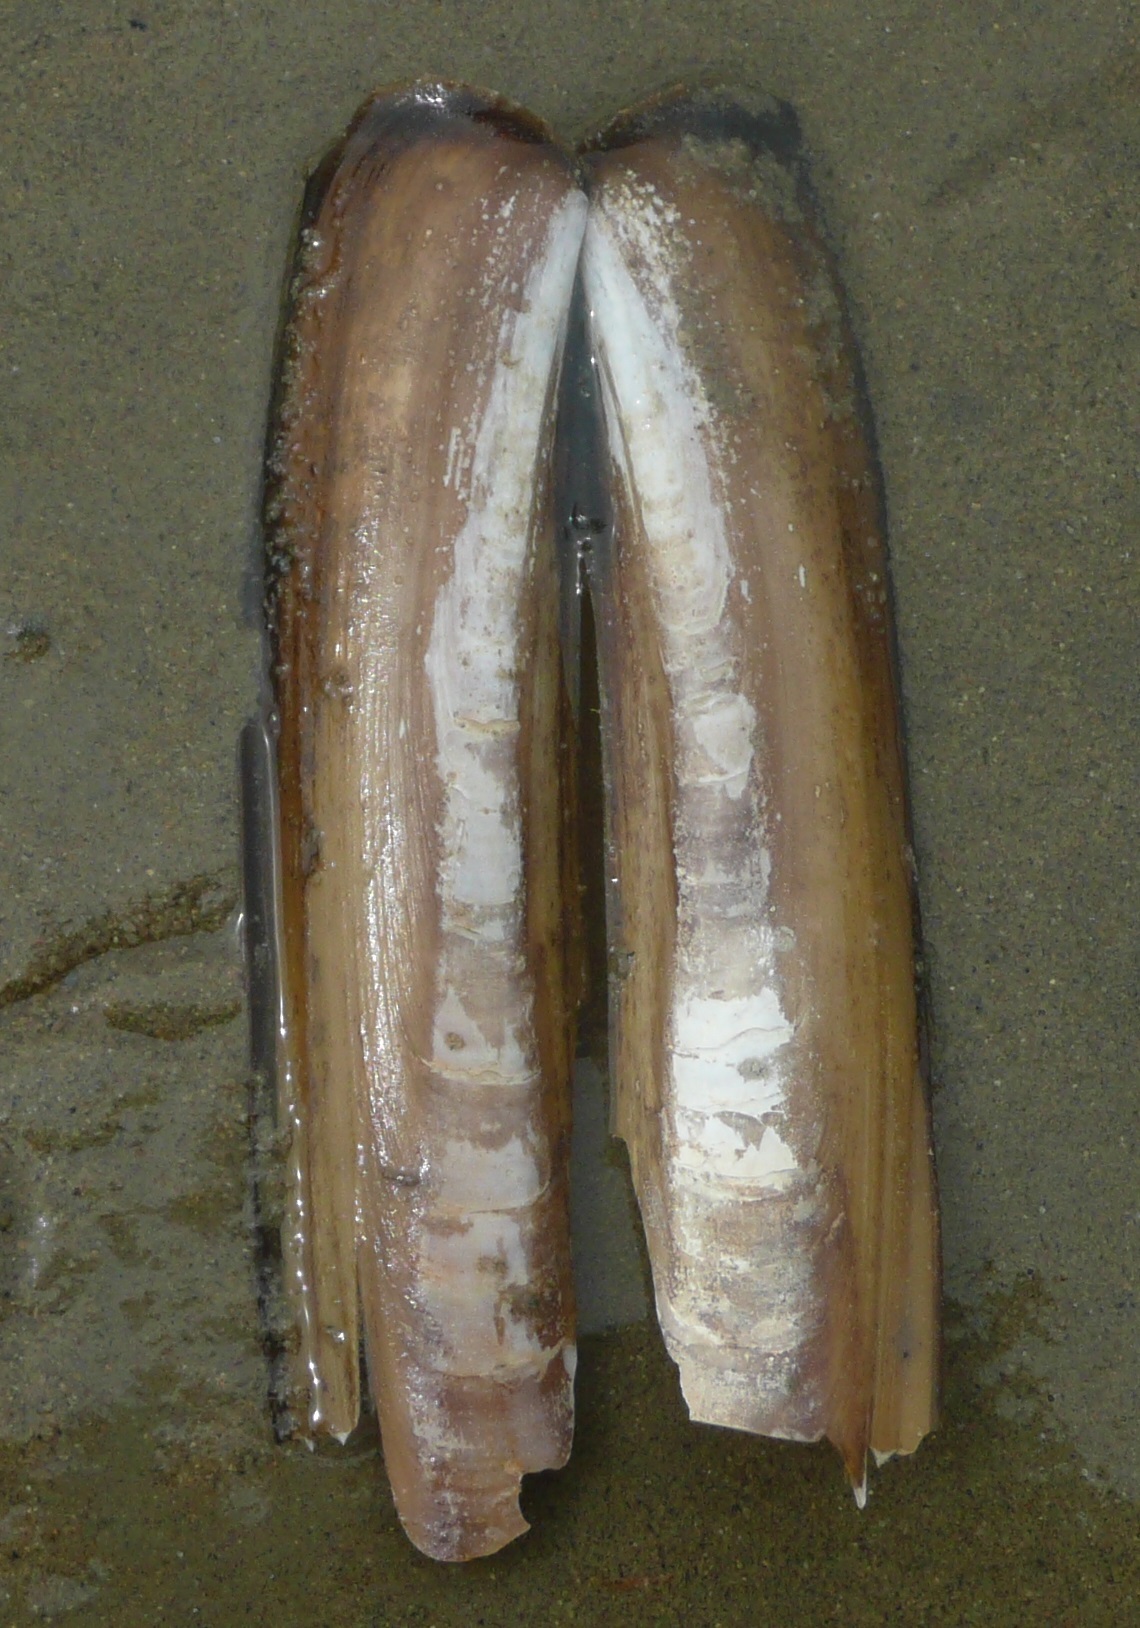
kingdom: Animalia
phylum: Mollusca
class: Bivalvia
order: Adapedonta
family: Pharidae
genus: Ensis
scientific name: Ensis leei
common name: American jack knife clam
